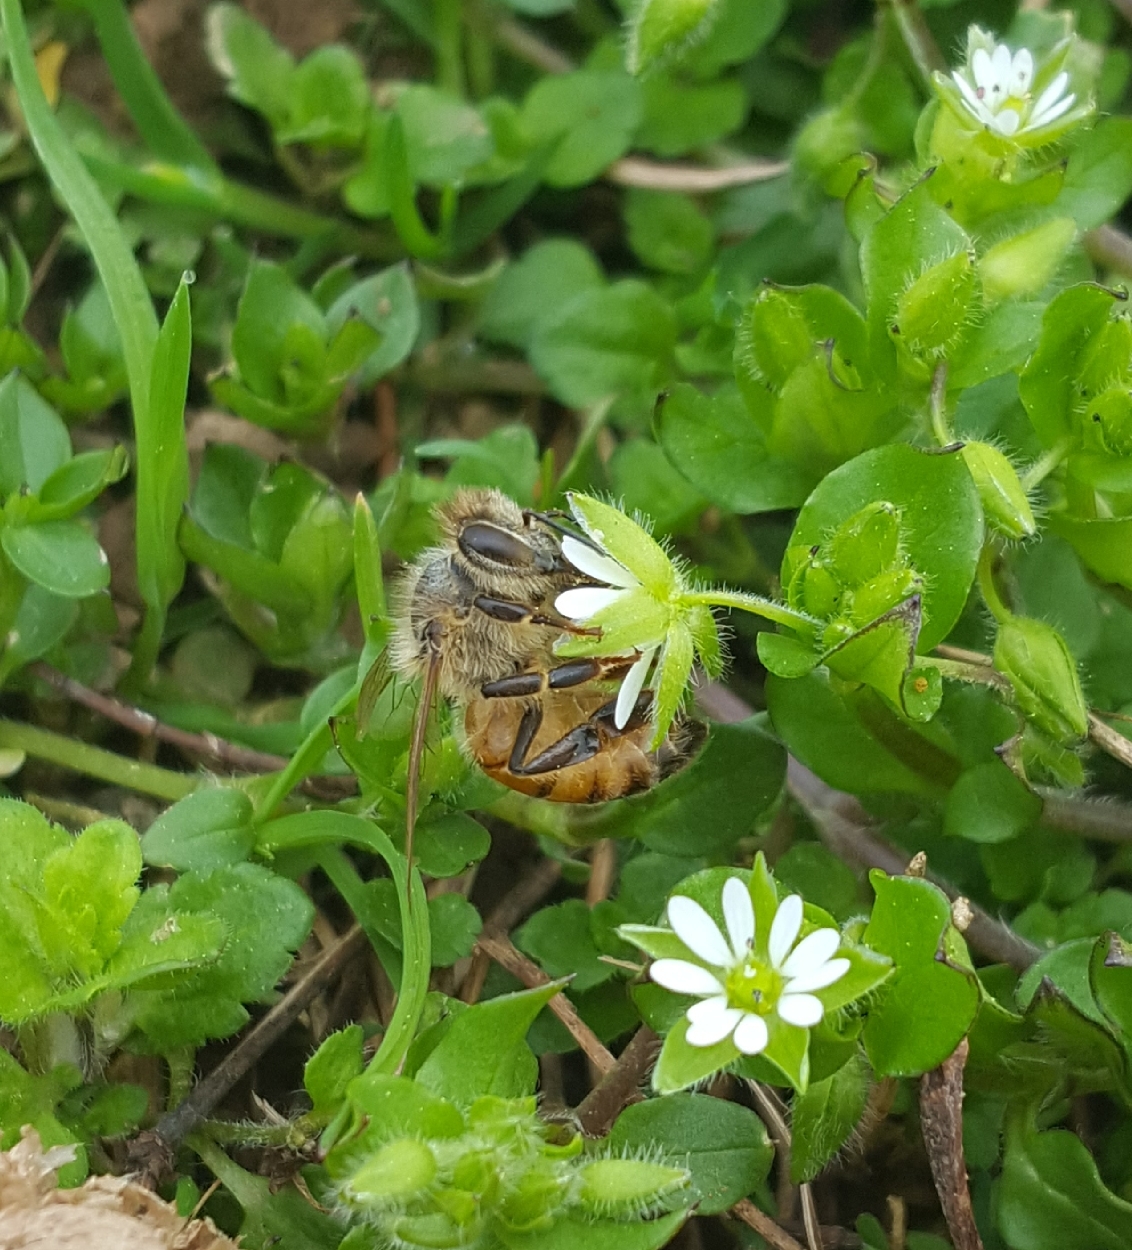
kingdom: Animalia
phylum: Arthropoda
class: Insecta
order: Hymenoptera
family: Apidae
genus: Apis
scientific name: Apis mellifera
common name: Honey bee
